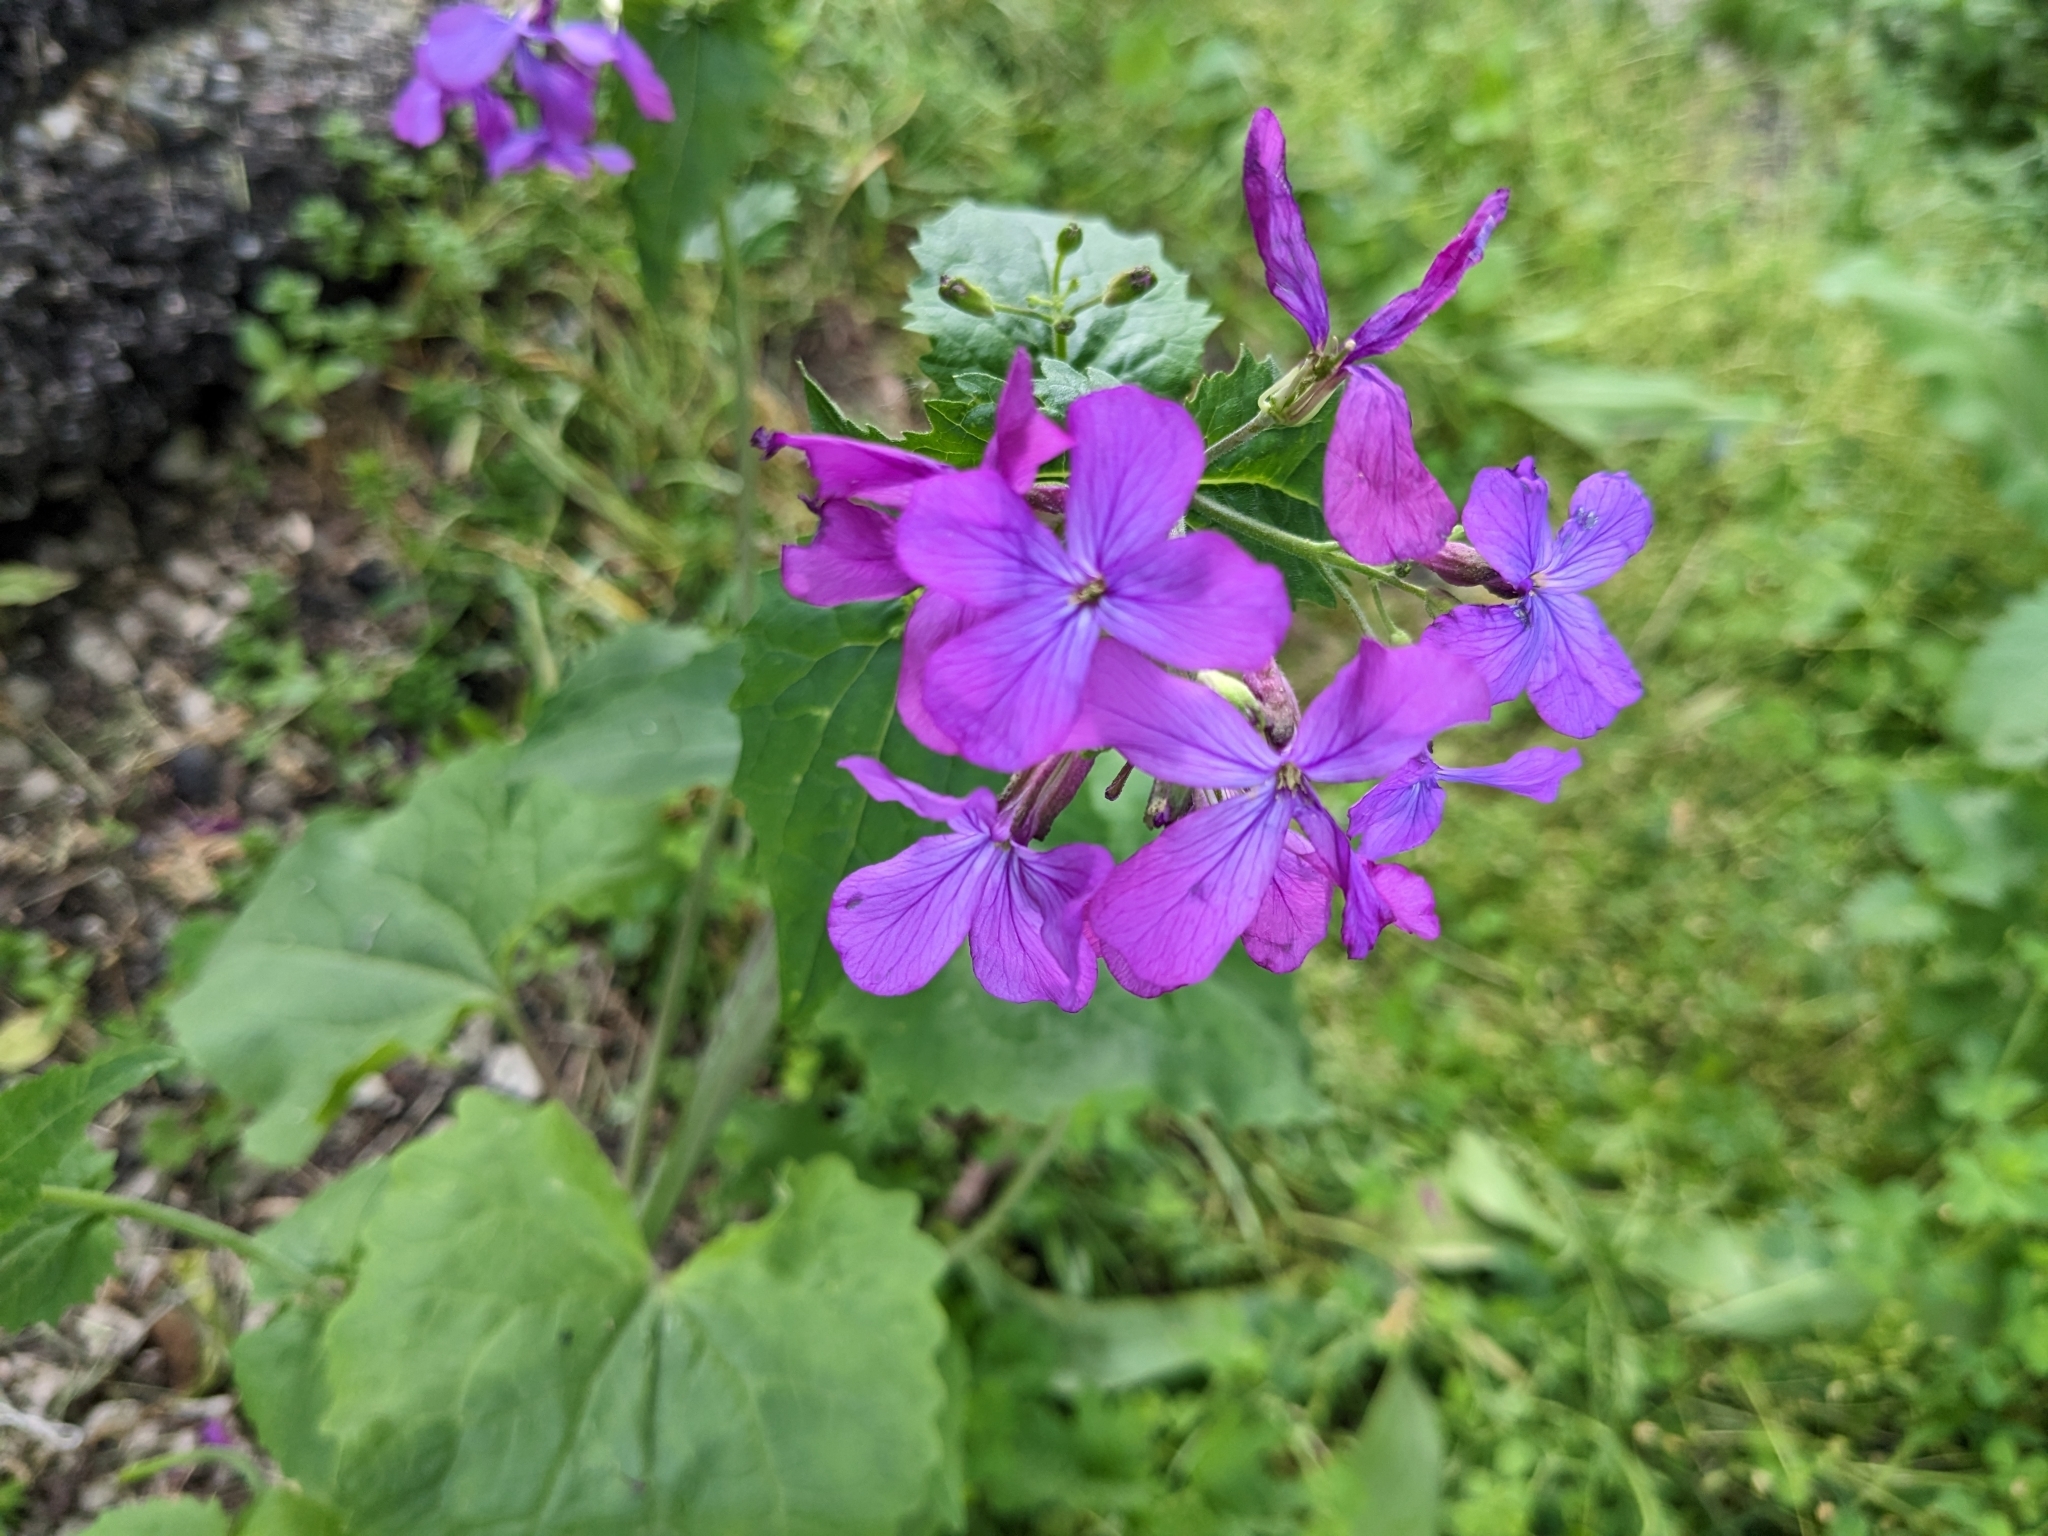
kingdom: Plantae
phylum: Tracheophyta
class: Magnoliopsida
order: Brassicales
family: Brassicaceae
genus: Lunaria
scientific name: Lunaria annua
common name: Honesty
